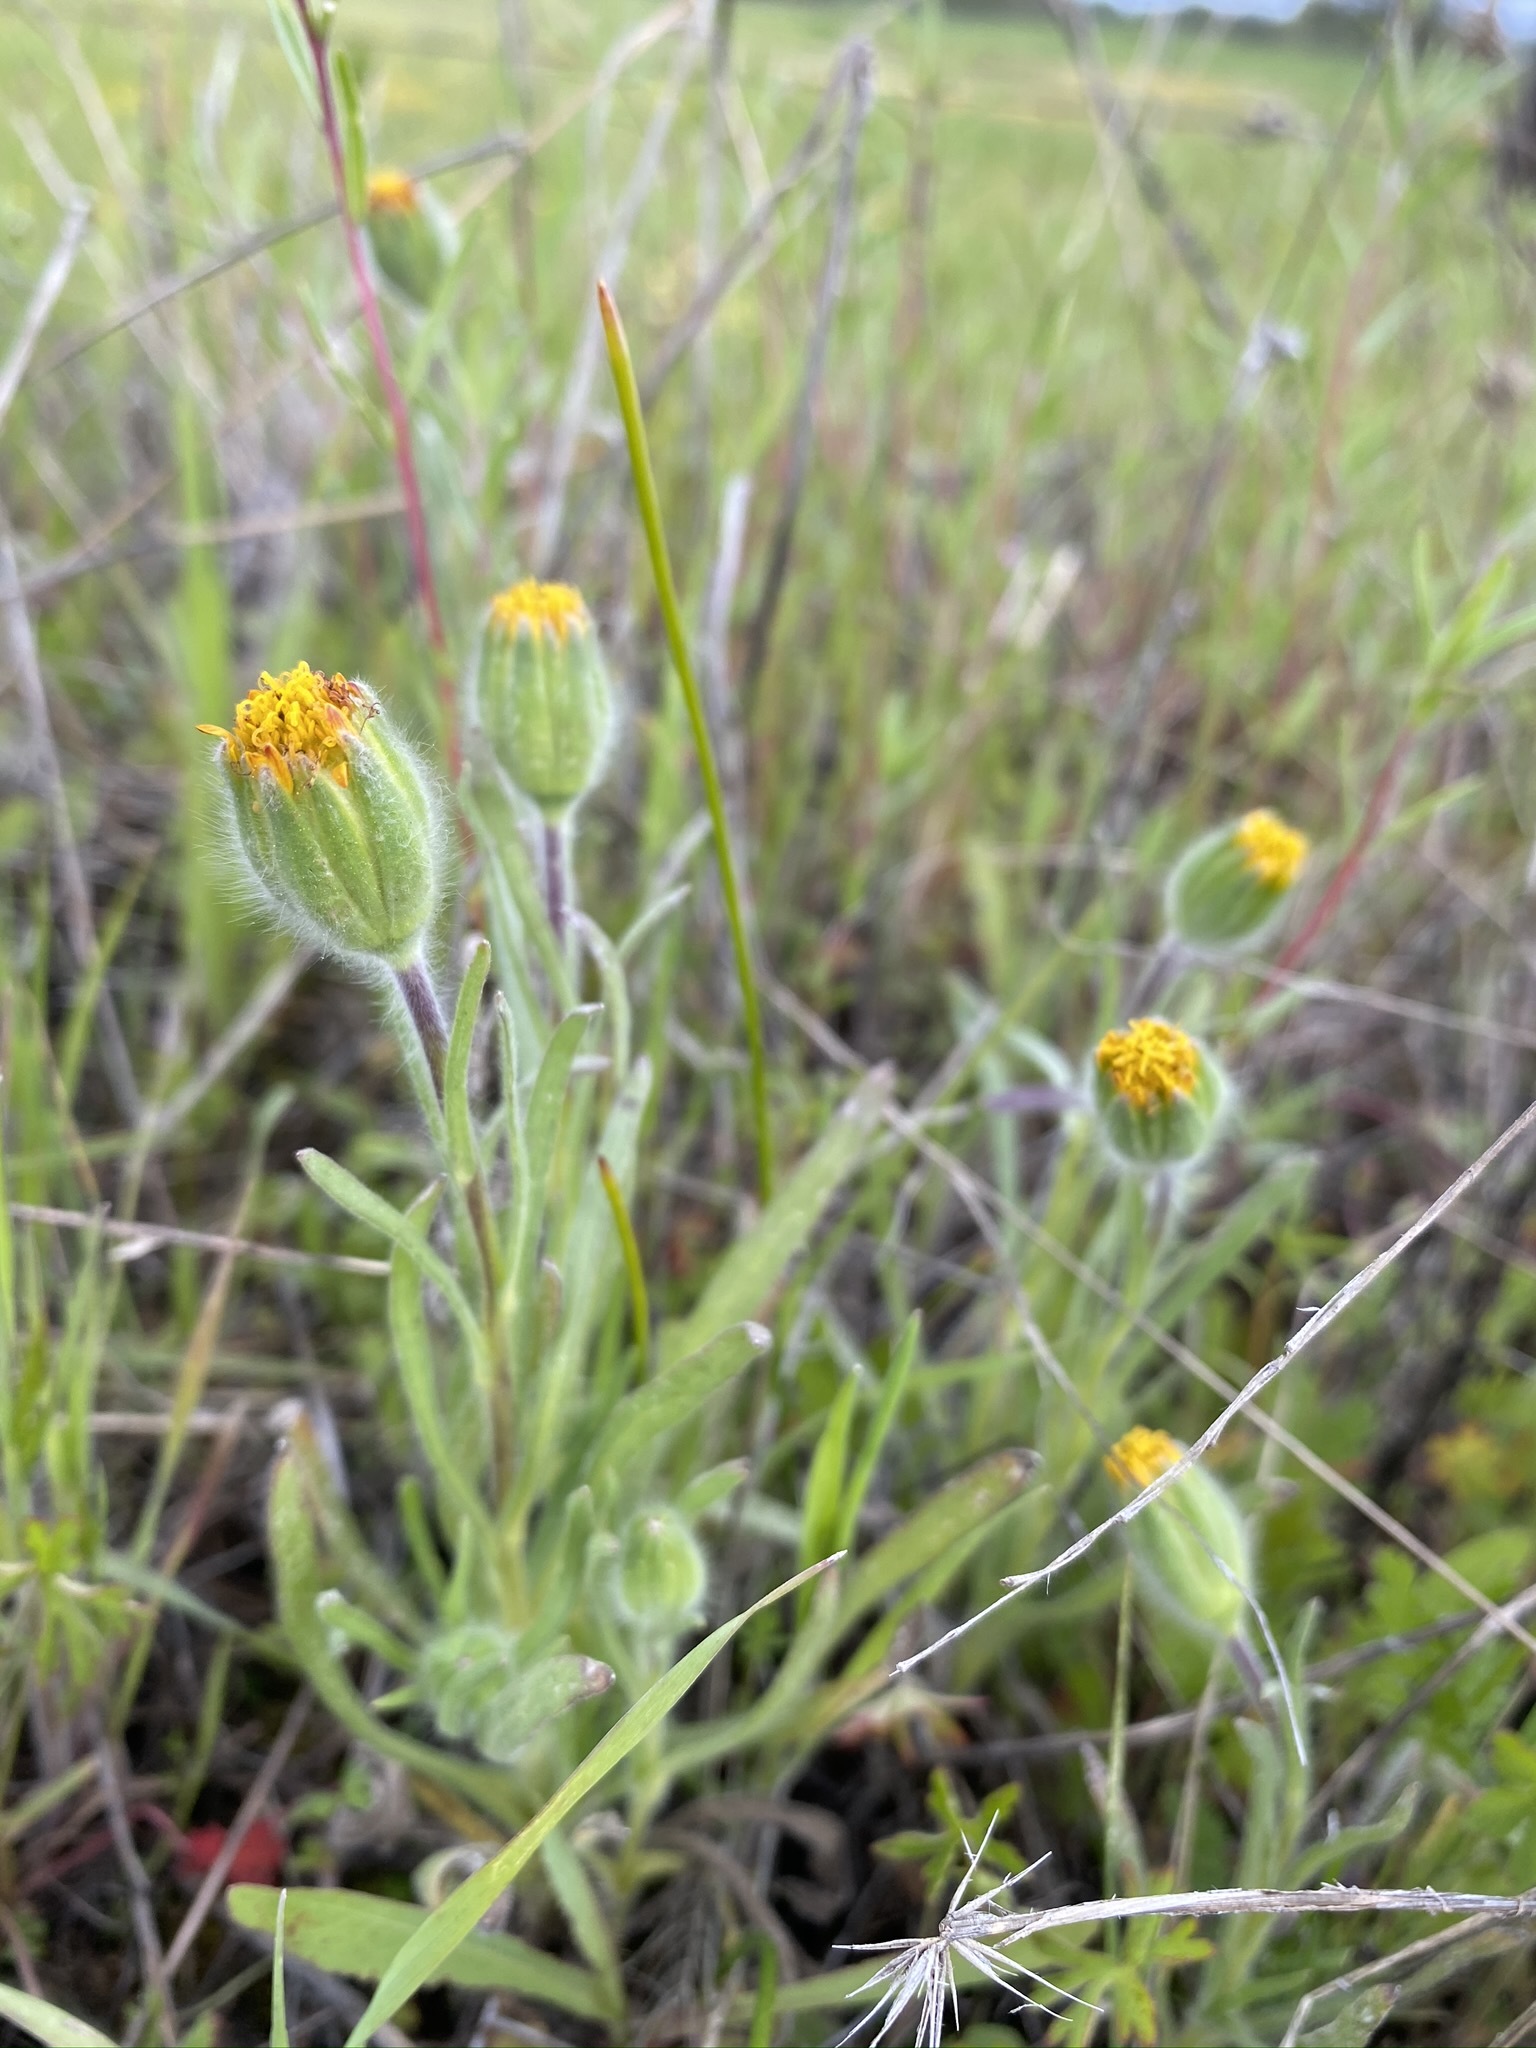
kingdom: Plantae
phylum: Tracheophyta
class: Magnoliopsida
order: Asterales
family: Asteraceae
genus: Achyrachaena
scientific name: Achyrachaena mollis
